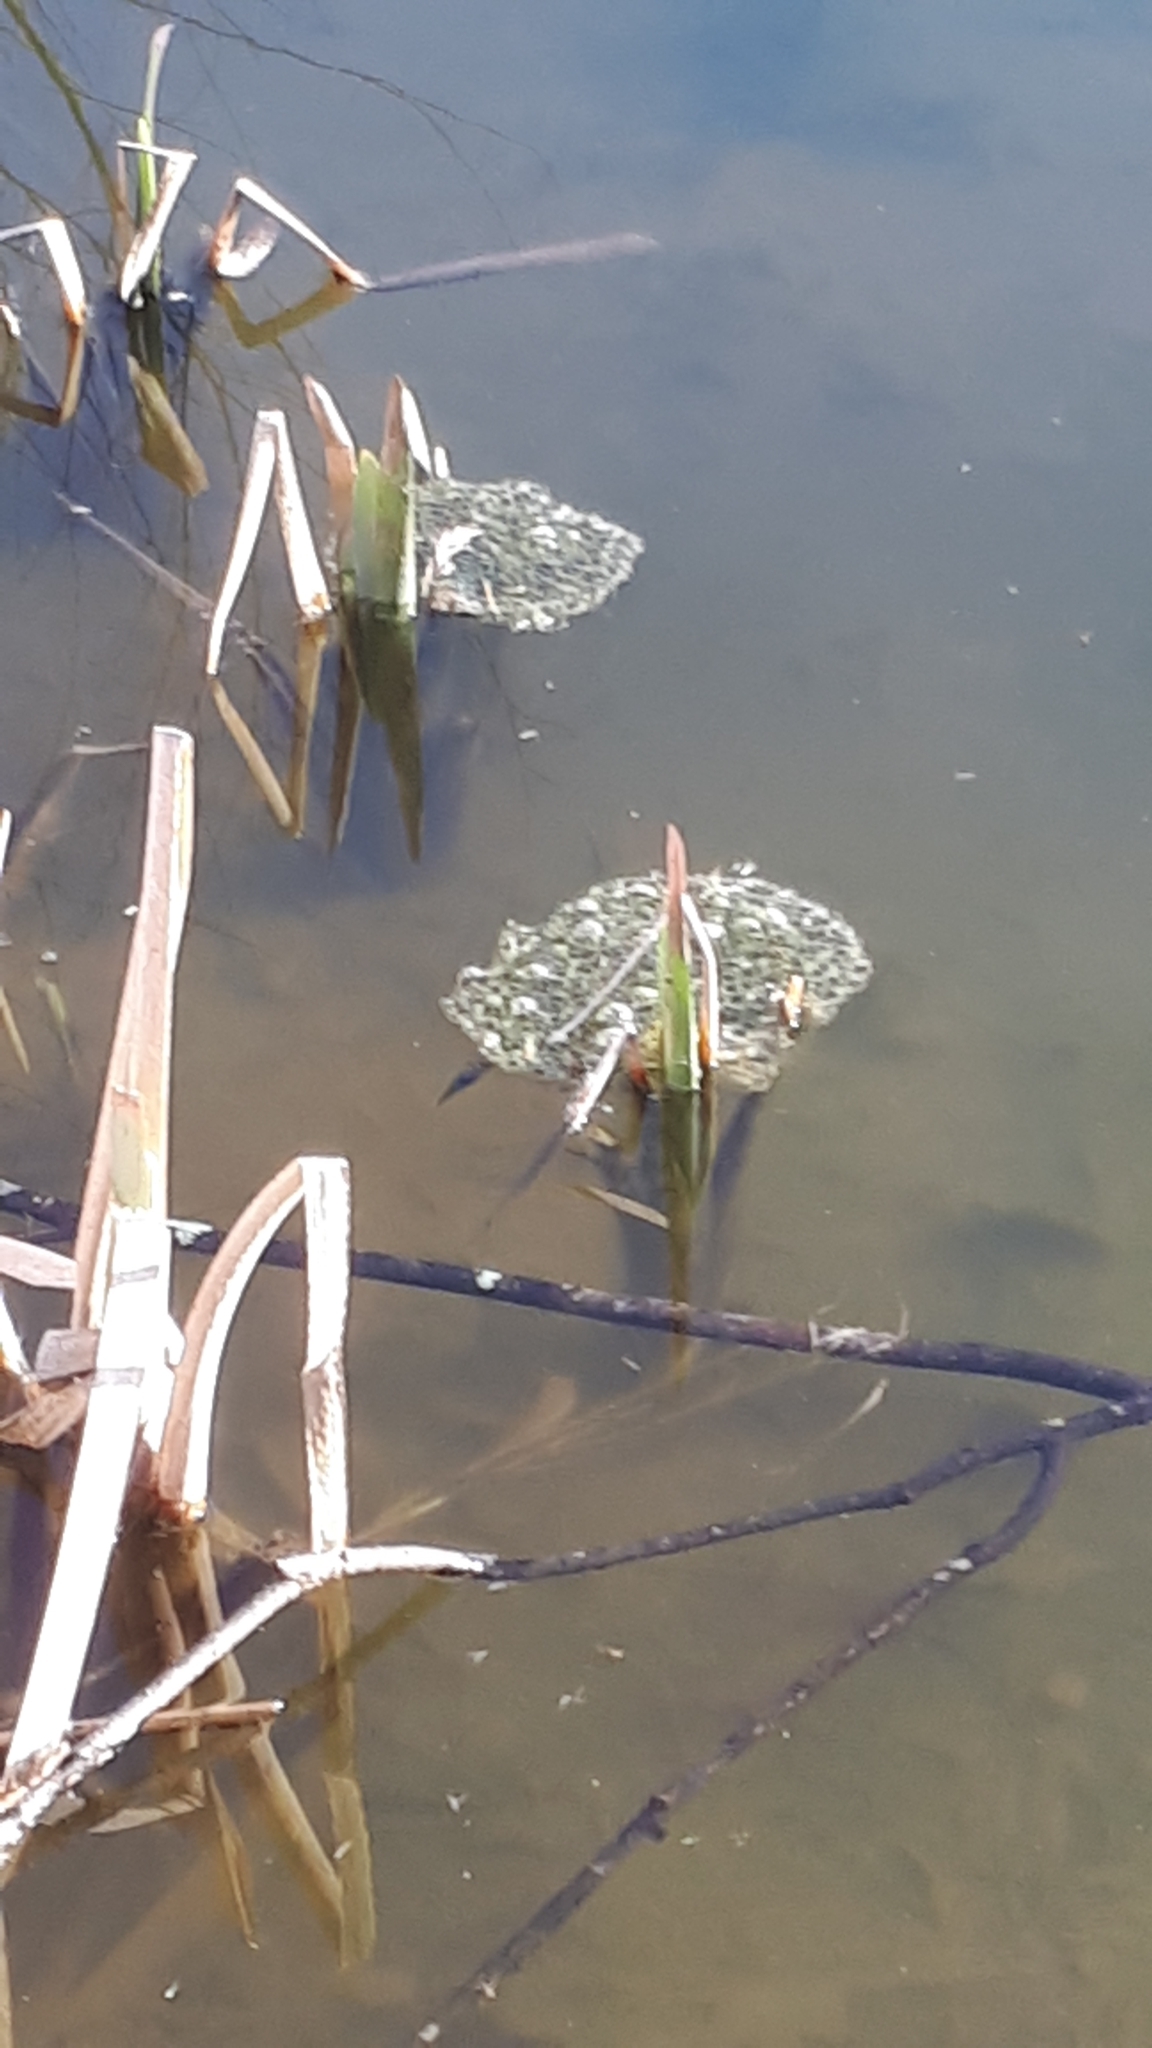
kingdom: Animalia
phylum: Chordata
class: Amphibia
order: Anura
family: Ranidae
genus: Rana
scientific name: Rana dalmatina
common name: Agile frog
